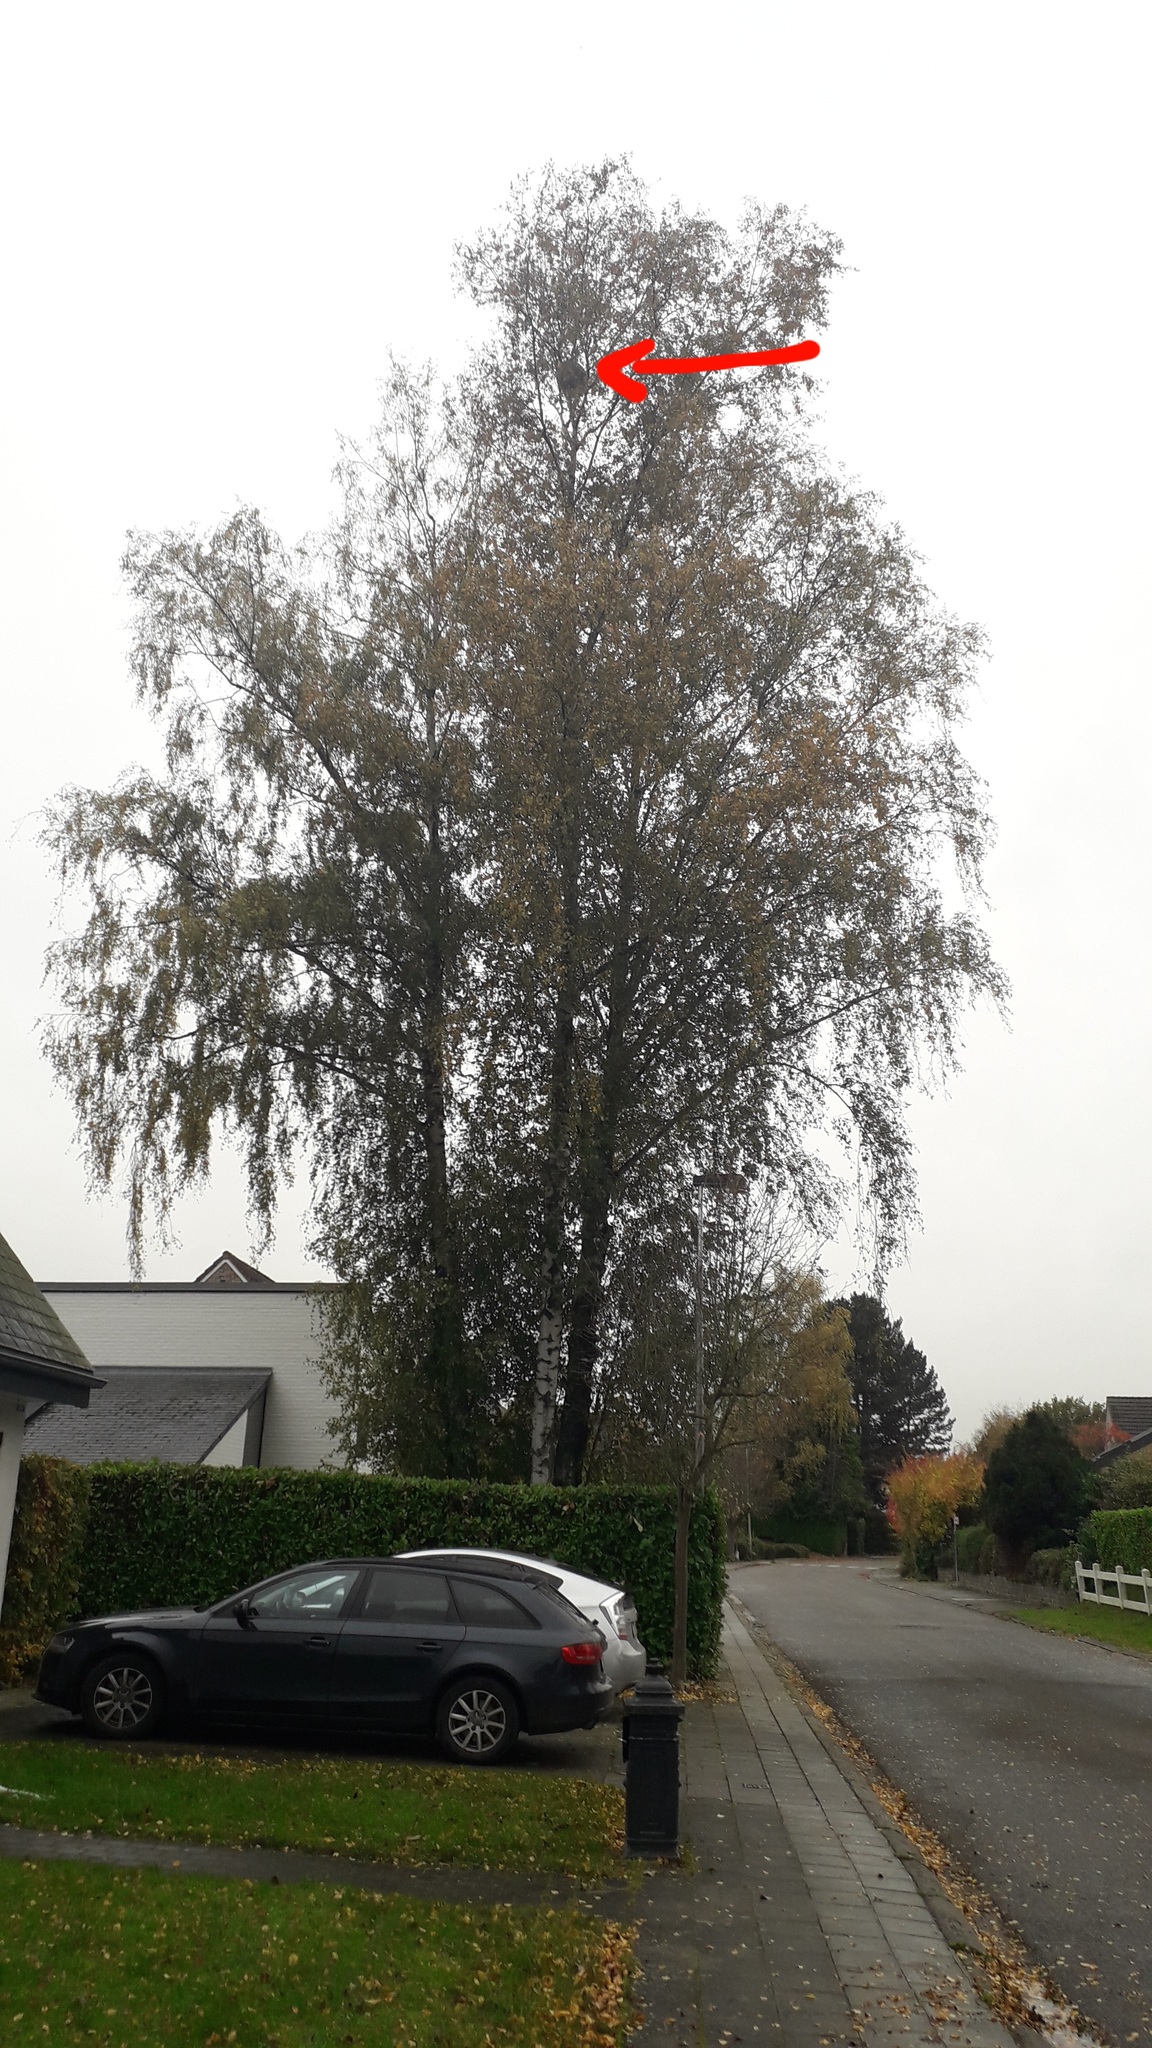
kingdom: Animalia
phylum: Arthropoda
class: Insecta
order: Hymenoptera
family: Vespidae
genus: Vespa
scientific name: Vespa velutina
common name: Asian hornet
